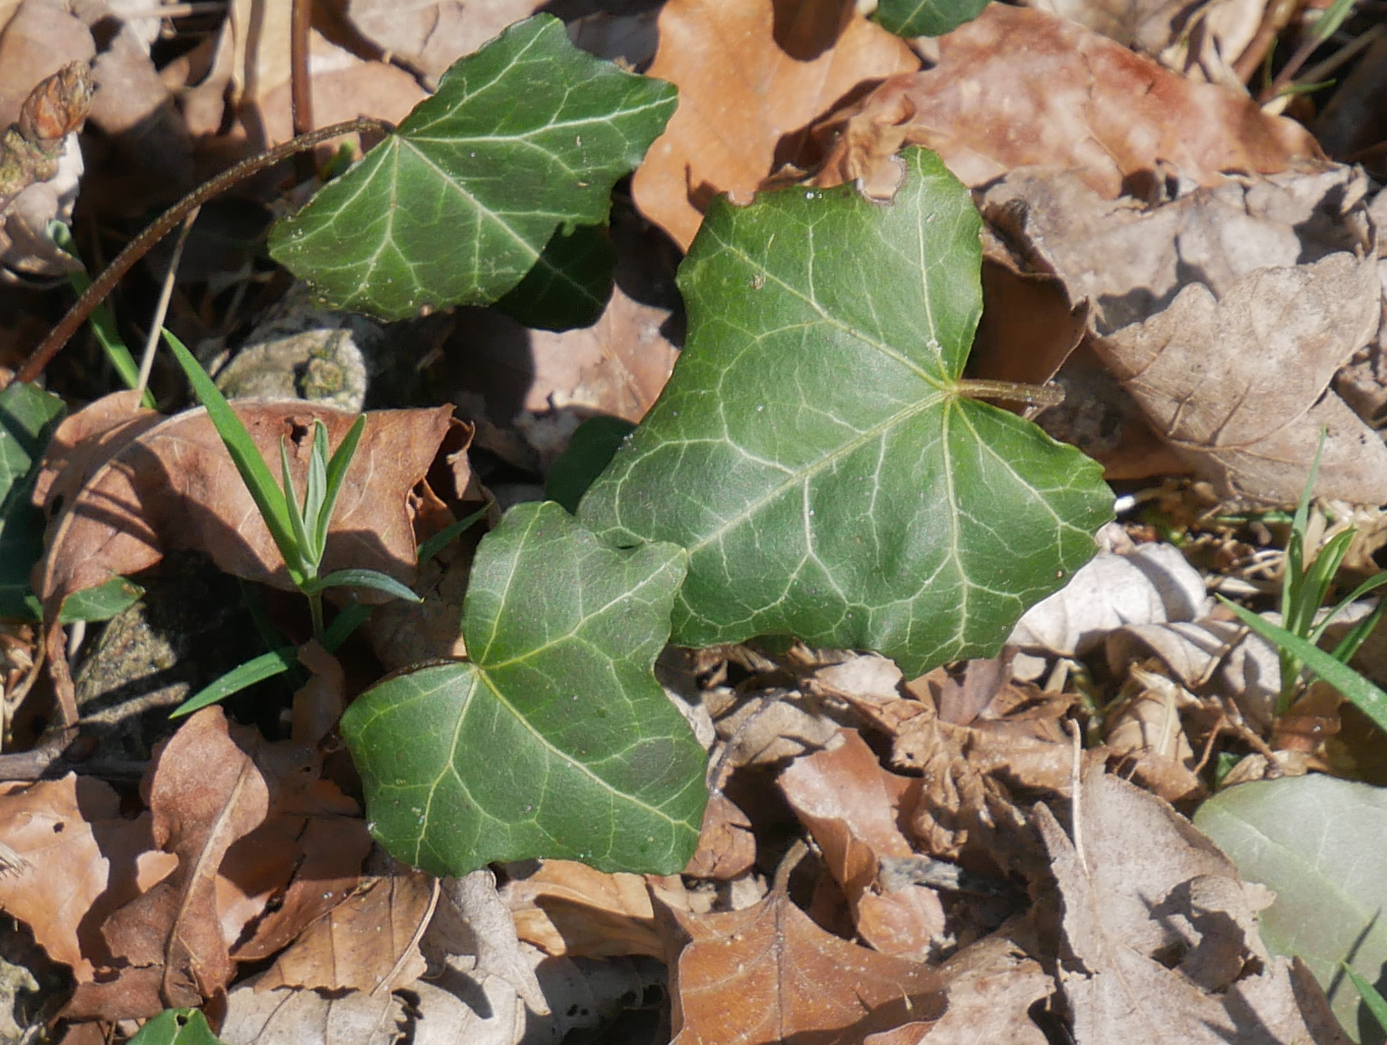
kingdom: Plantae
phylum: Tracheophyta
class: Magnoliopsida
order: Apiales
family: Araliaceae
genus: Hedera
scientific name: Hedera helix
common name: Ivy
